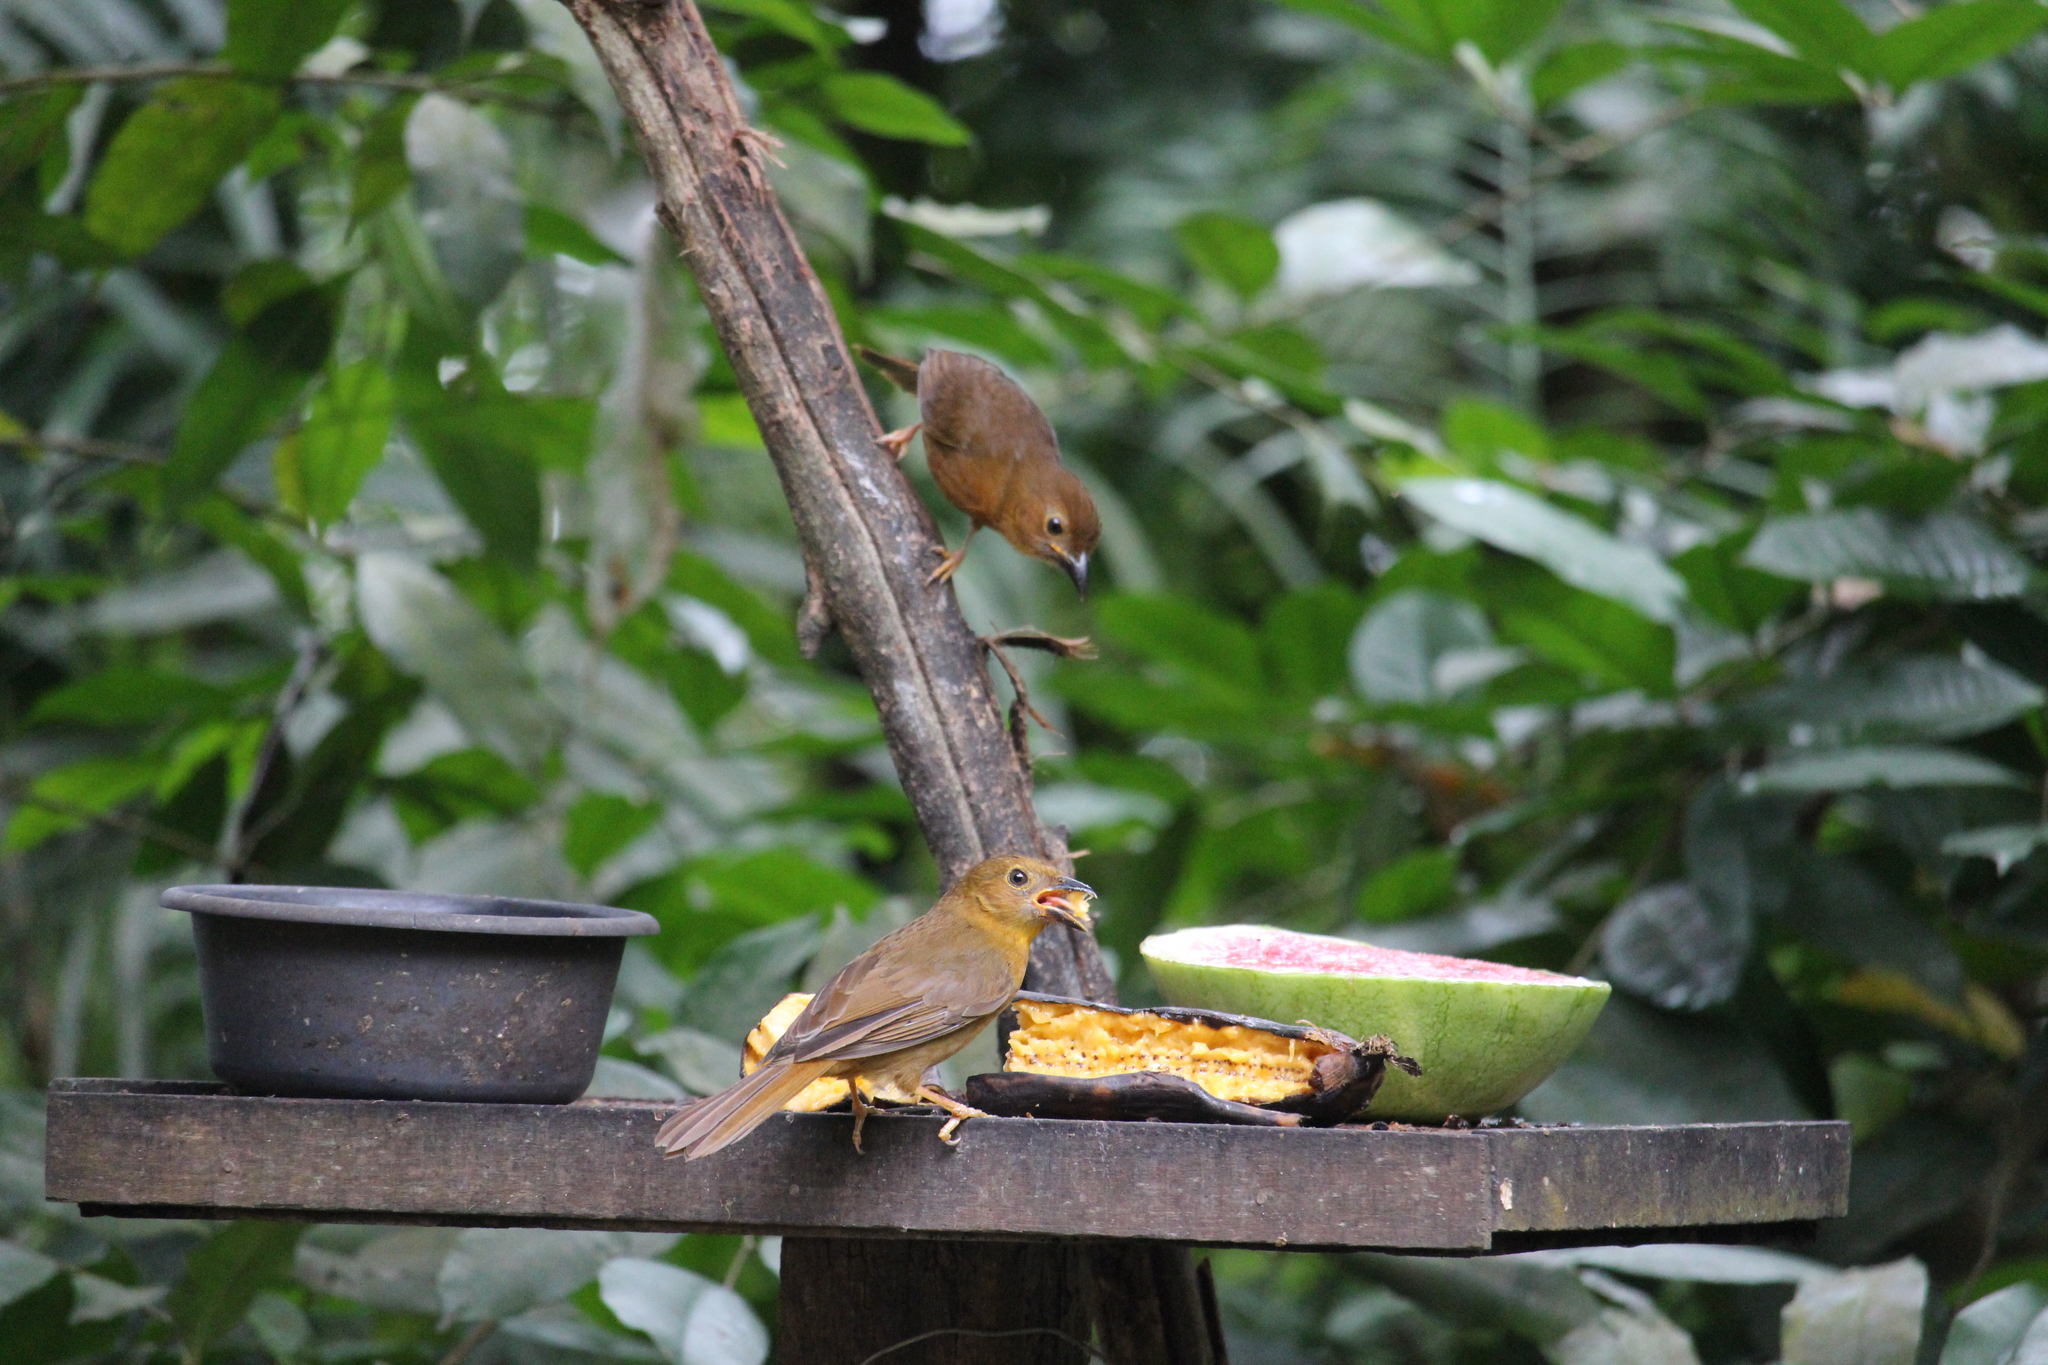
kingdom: Animalia
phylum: Chordata
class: Aves
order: Passeriformes
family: Cardinalidae
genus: Habia
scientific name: Habia fuscicauda
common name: Red-throated ant-tanager
